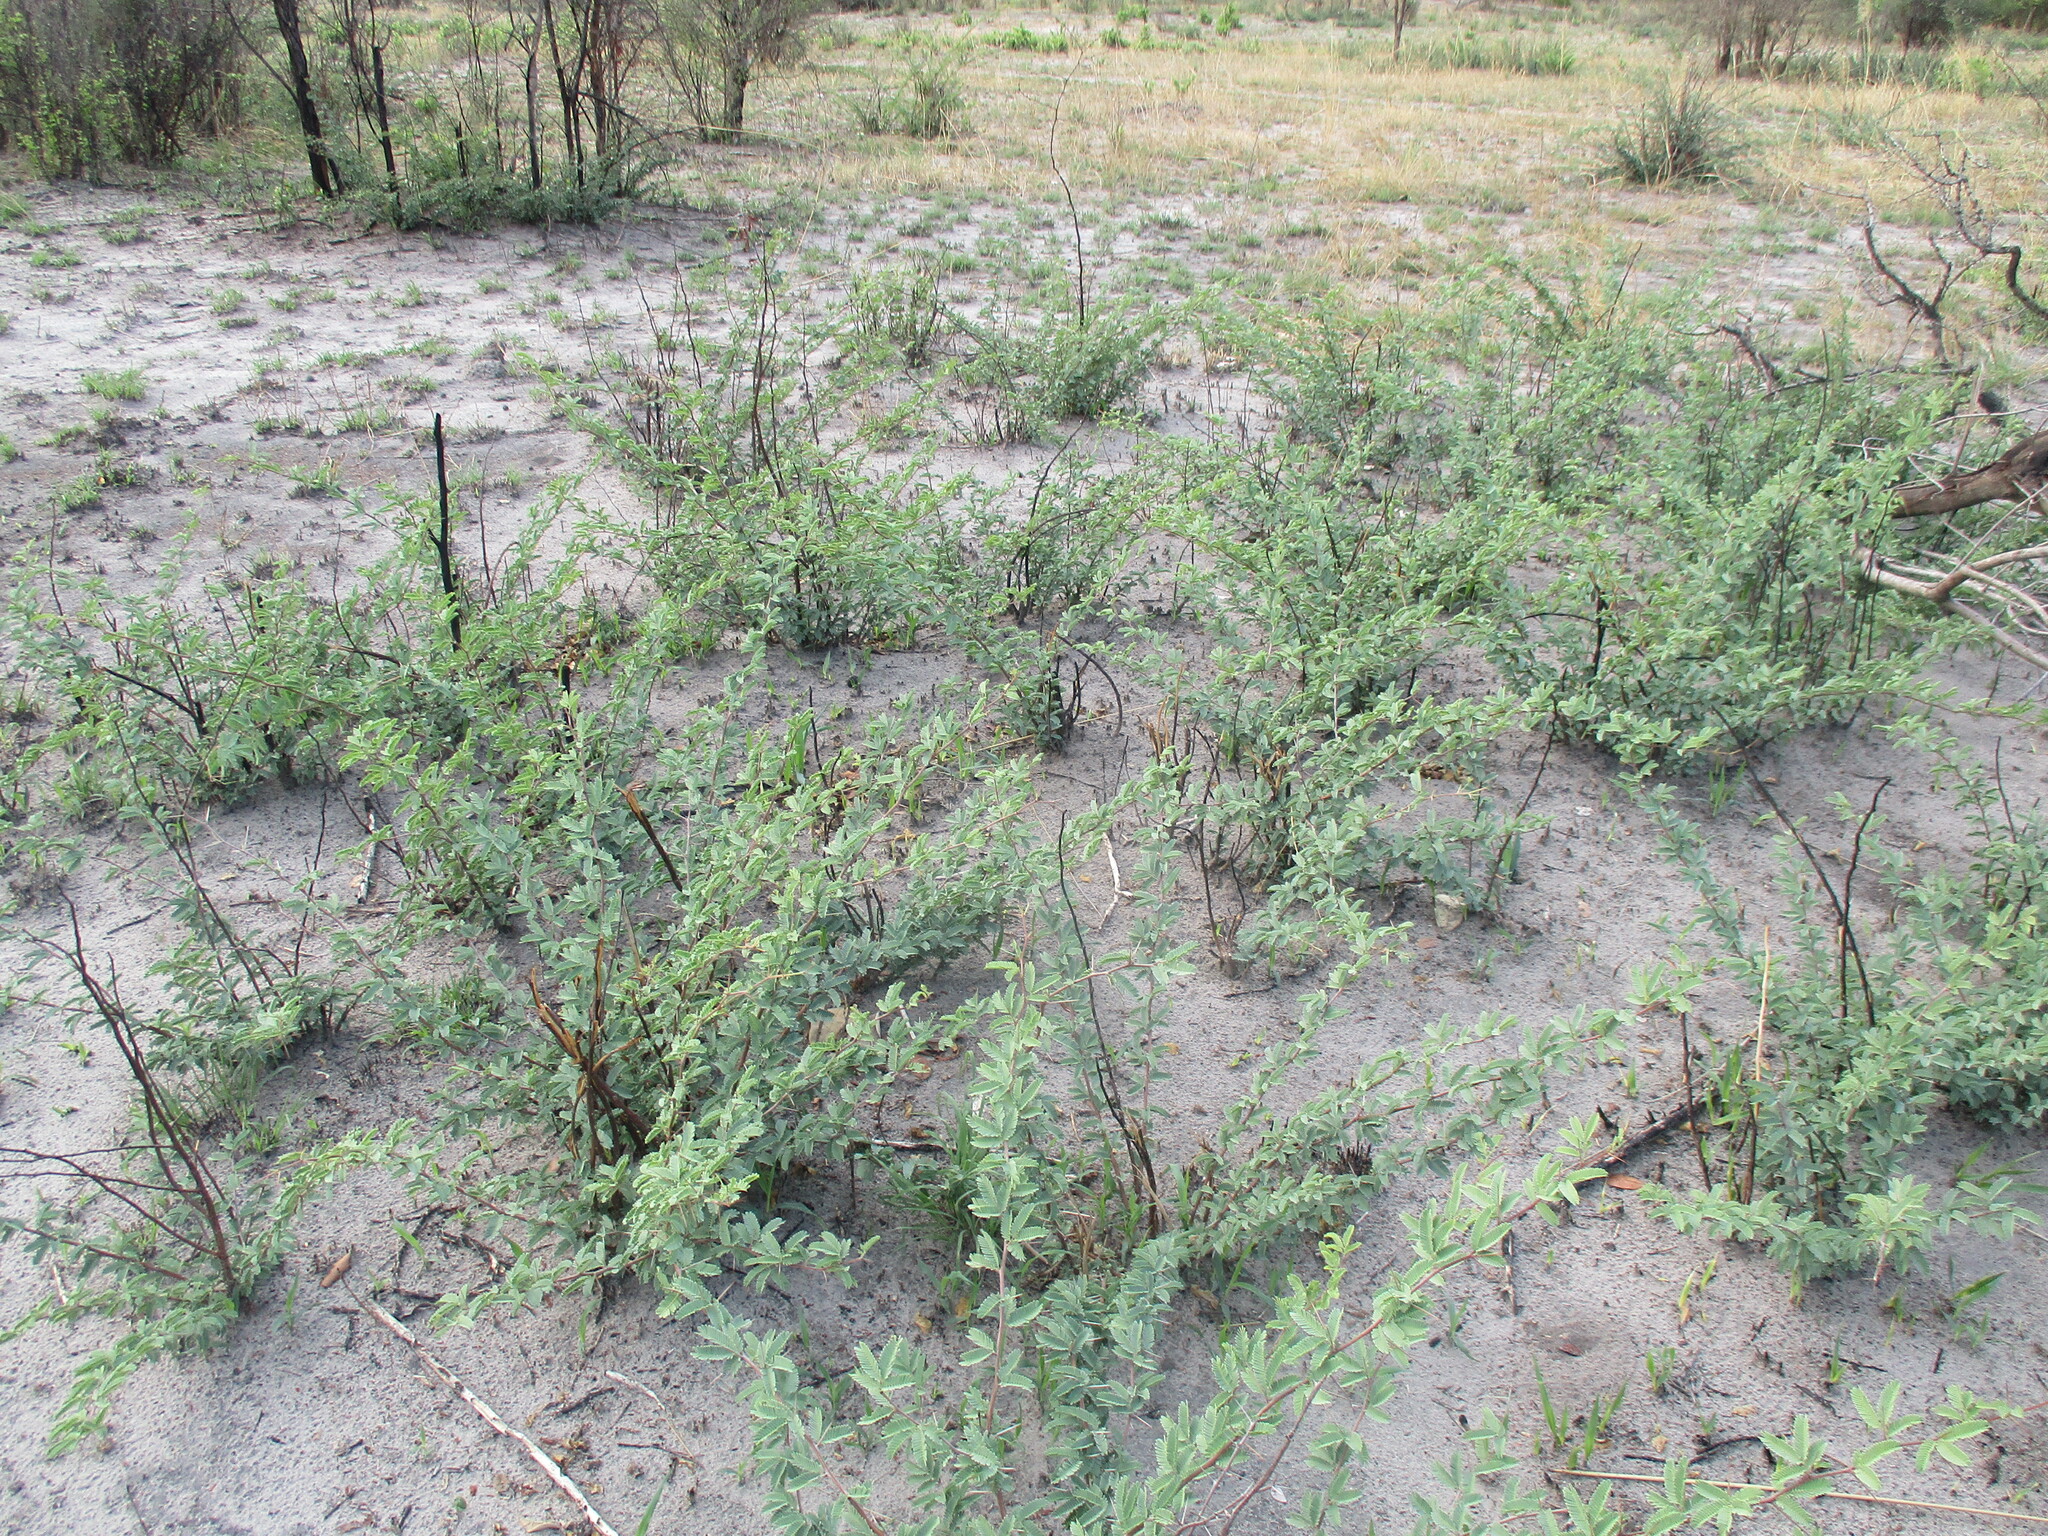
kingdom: Plantae
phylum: Tracheophyta
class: Magnoliopsida
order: Fabales
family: Fabaceae
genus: Vachellia
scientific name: Vachellia erioloba
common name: Camel thorn
